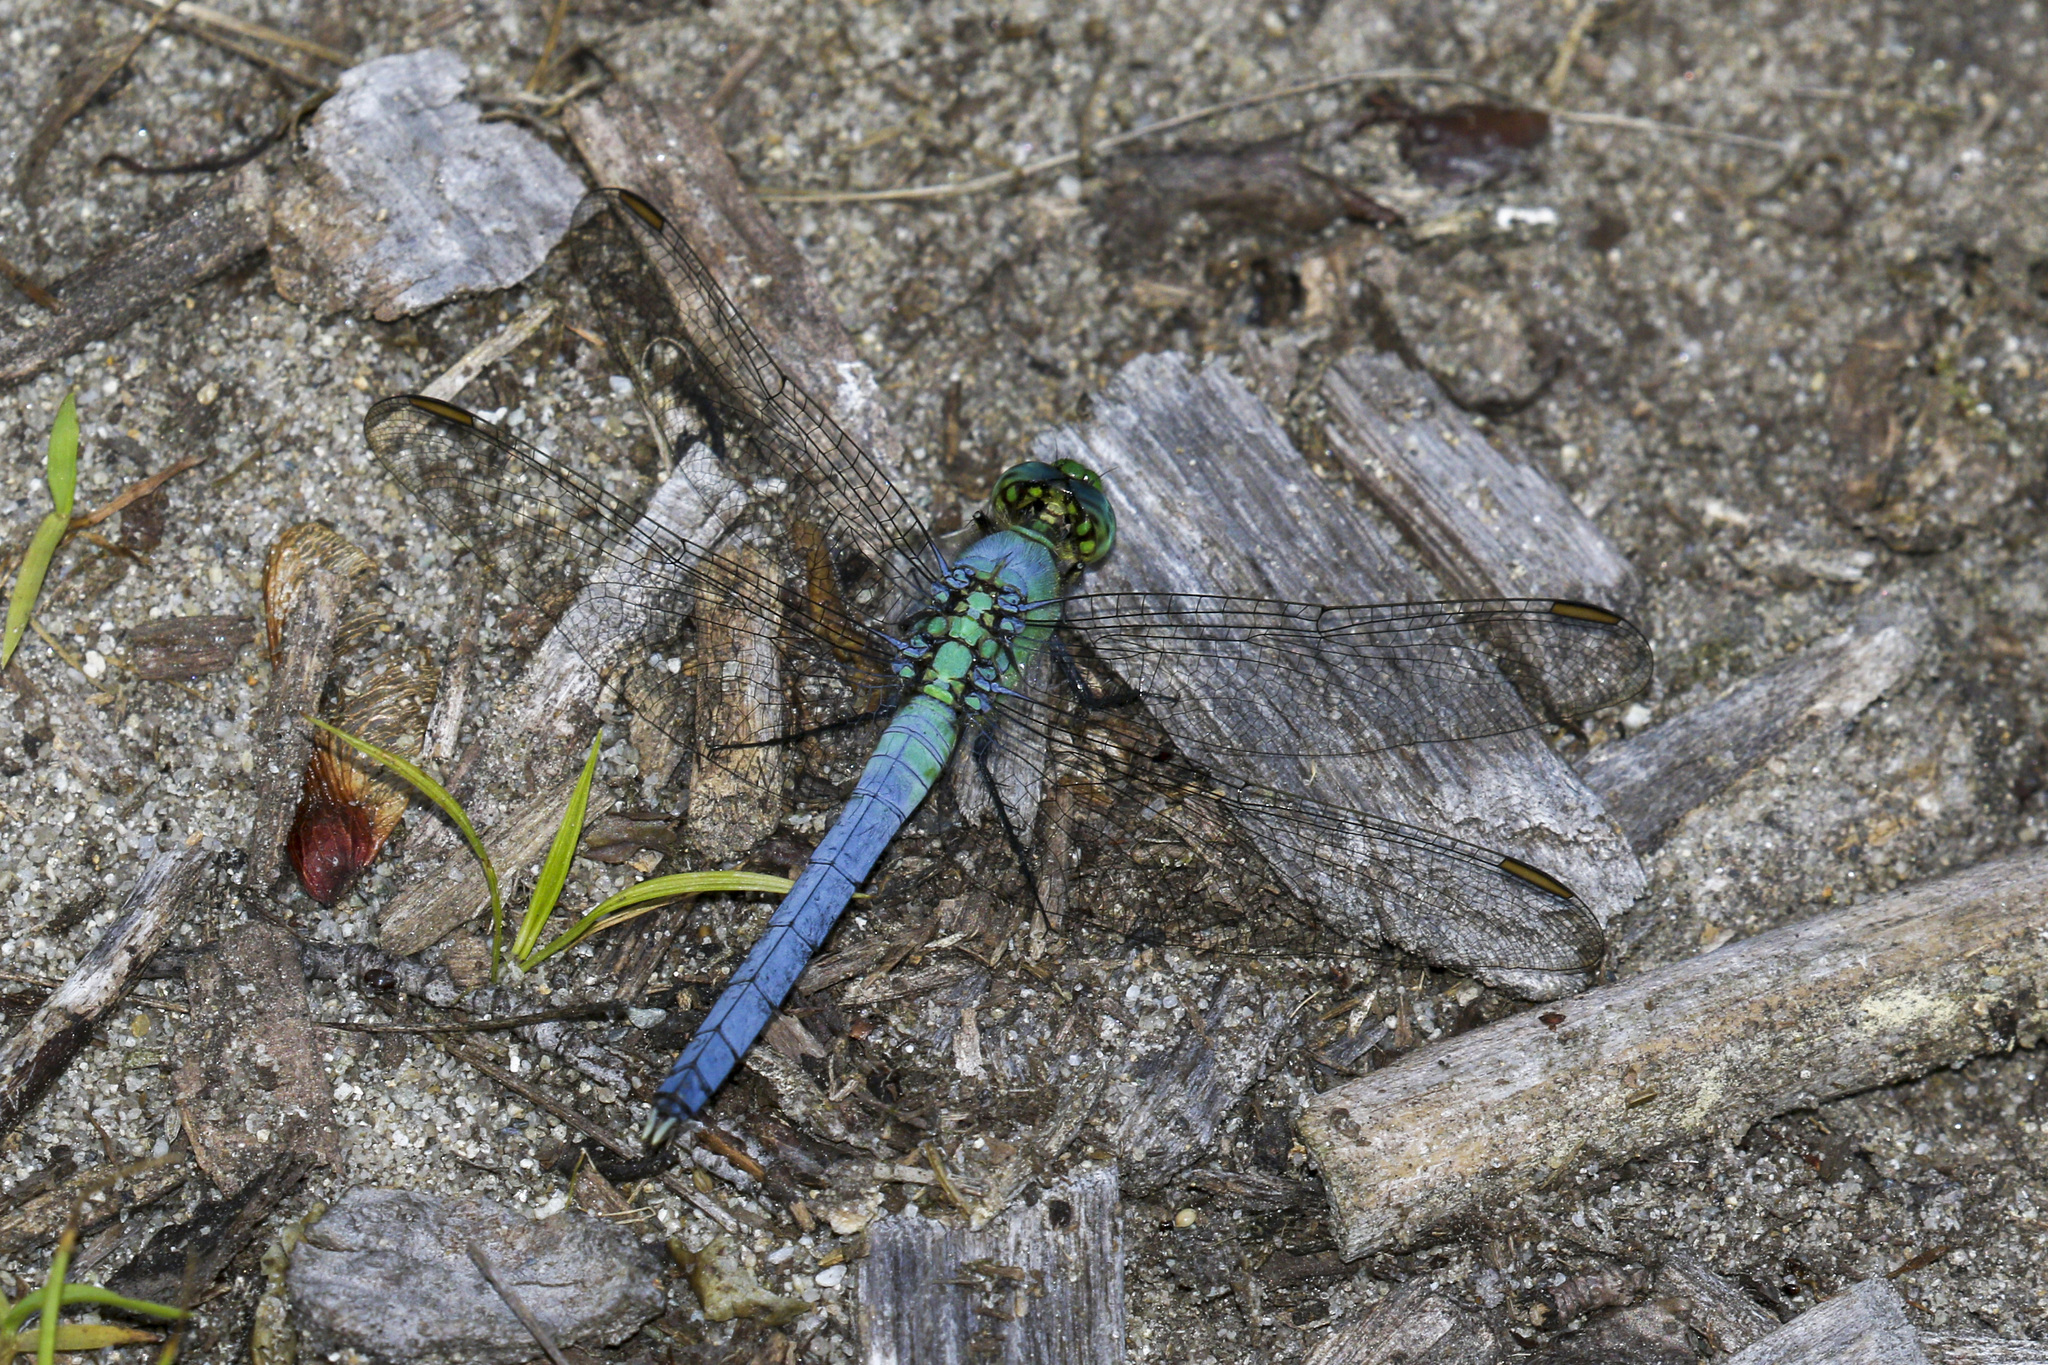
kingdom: Animalia
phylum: Arthropoda
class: Insecta
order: Odonata
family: Libellulidae
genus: Erythemis
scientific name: Erythemis simplicicollis
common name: Eastern pondhawk
